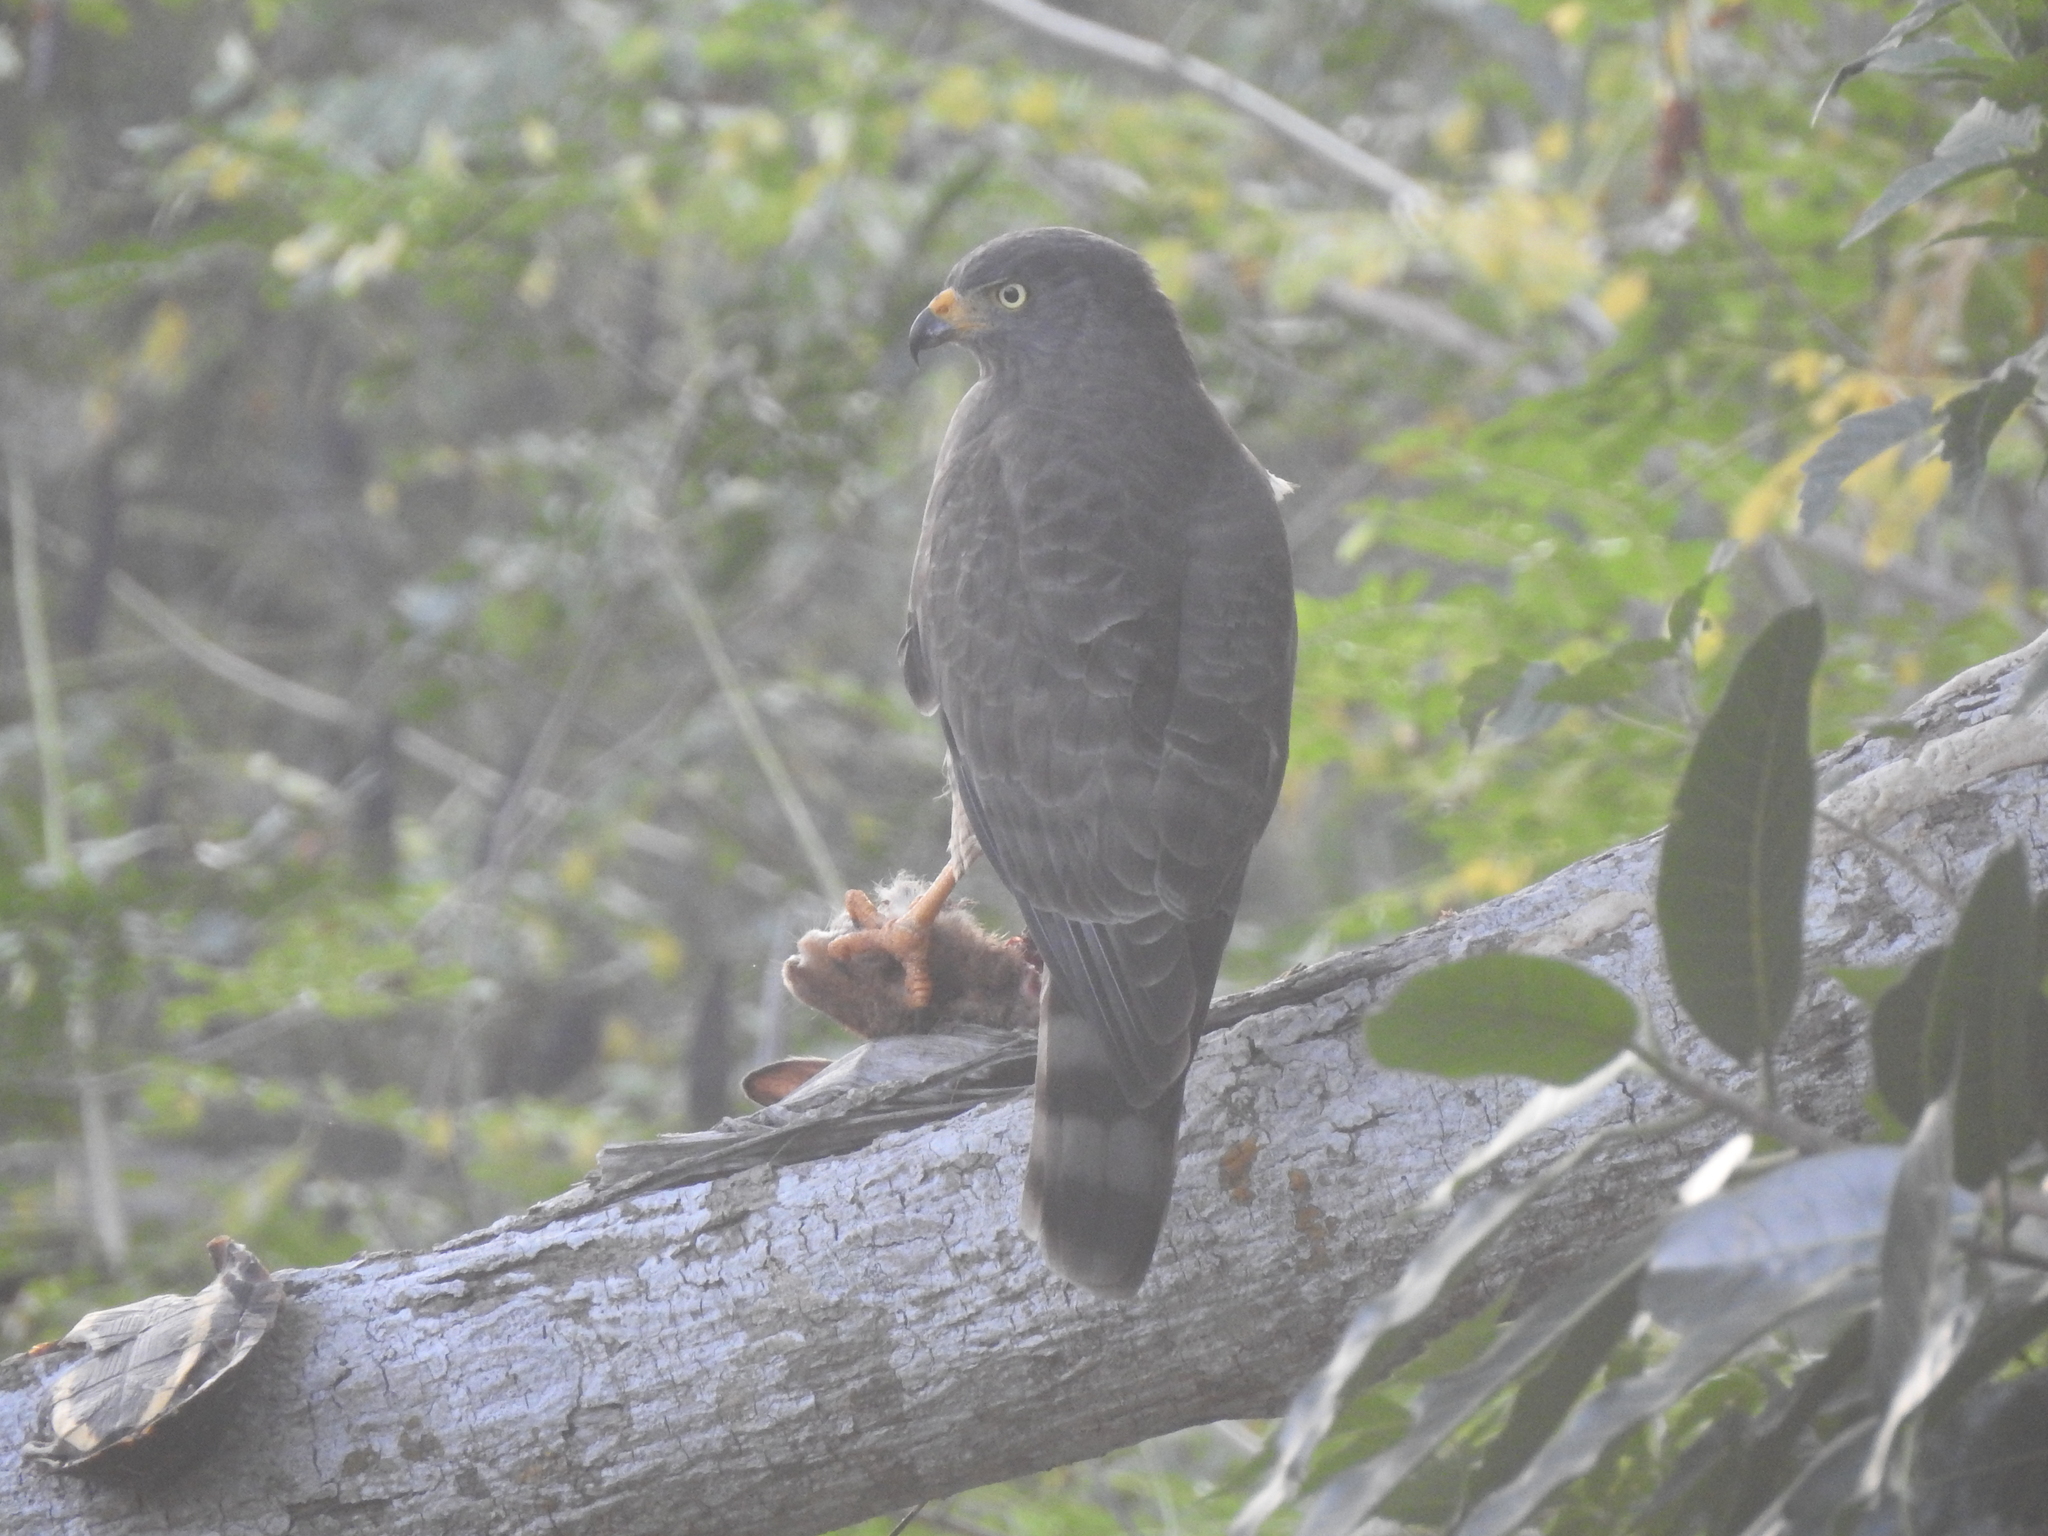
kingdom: Animalia
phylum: Chordata
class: Aves
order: Accipitriformes
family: Accipitridae
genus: Rupornis
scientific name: Rupornis magnirostris
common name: Roadside hawk
